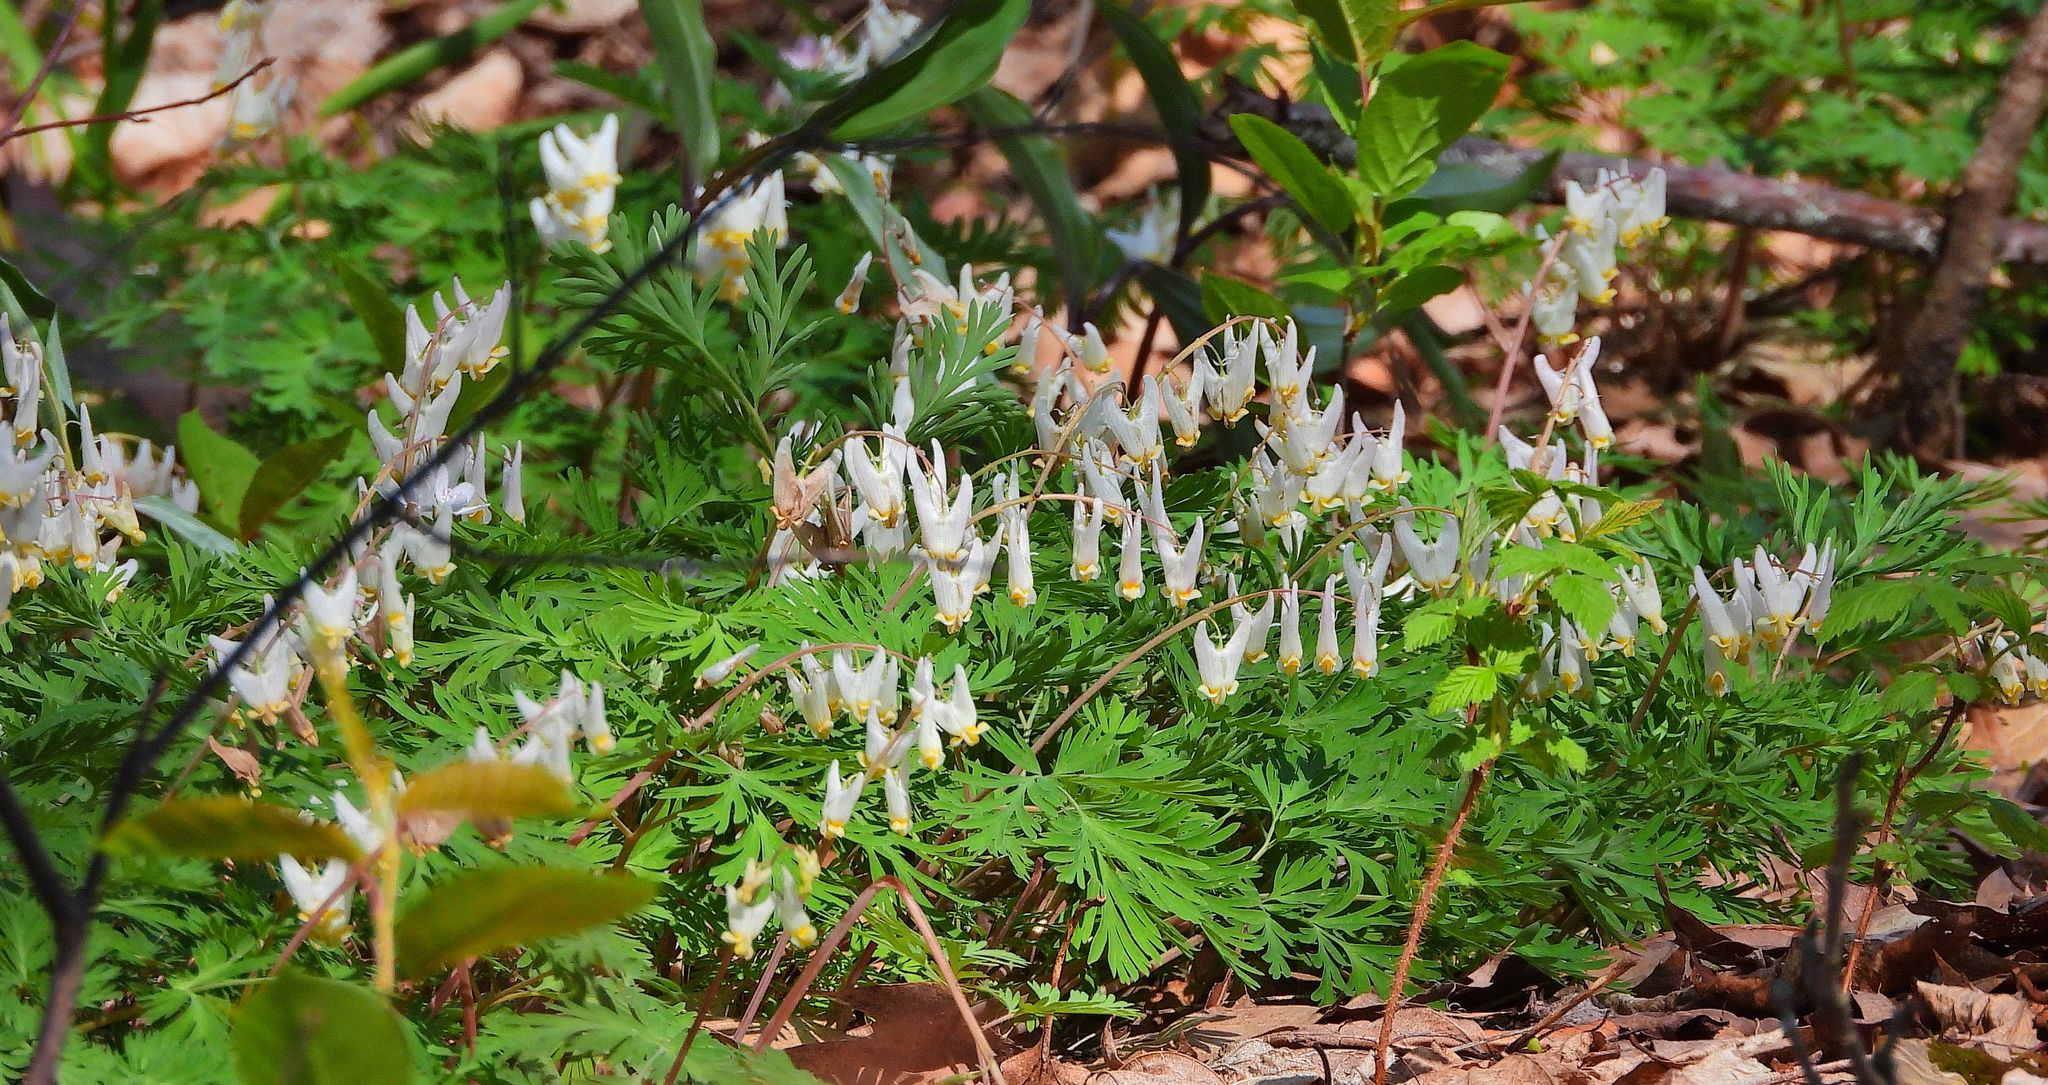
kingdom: Plantae
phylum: Tracheophyta
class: Magnoliopsida
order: Ranunculales
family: Papaveraceae
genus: Dicentra
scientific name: Dicentra cucullaria
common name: Dutchman's breeches
